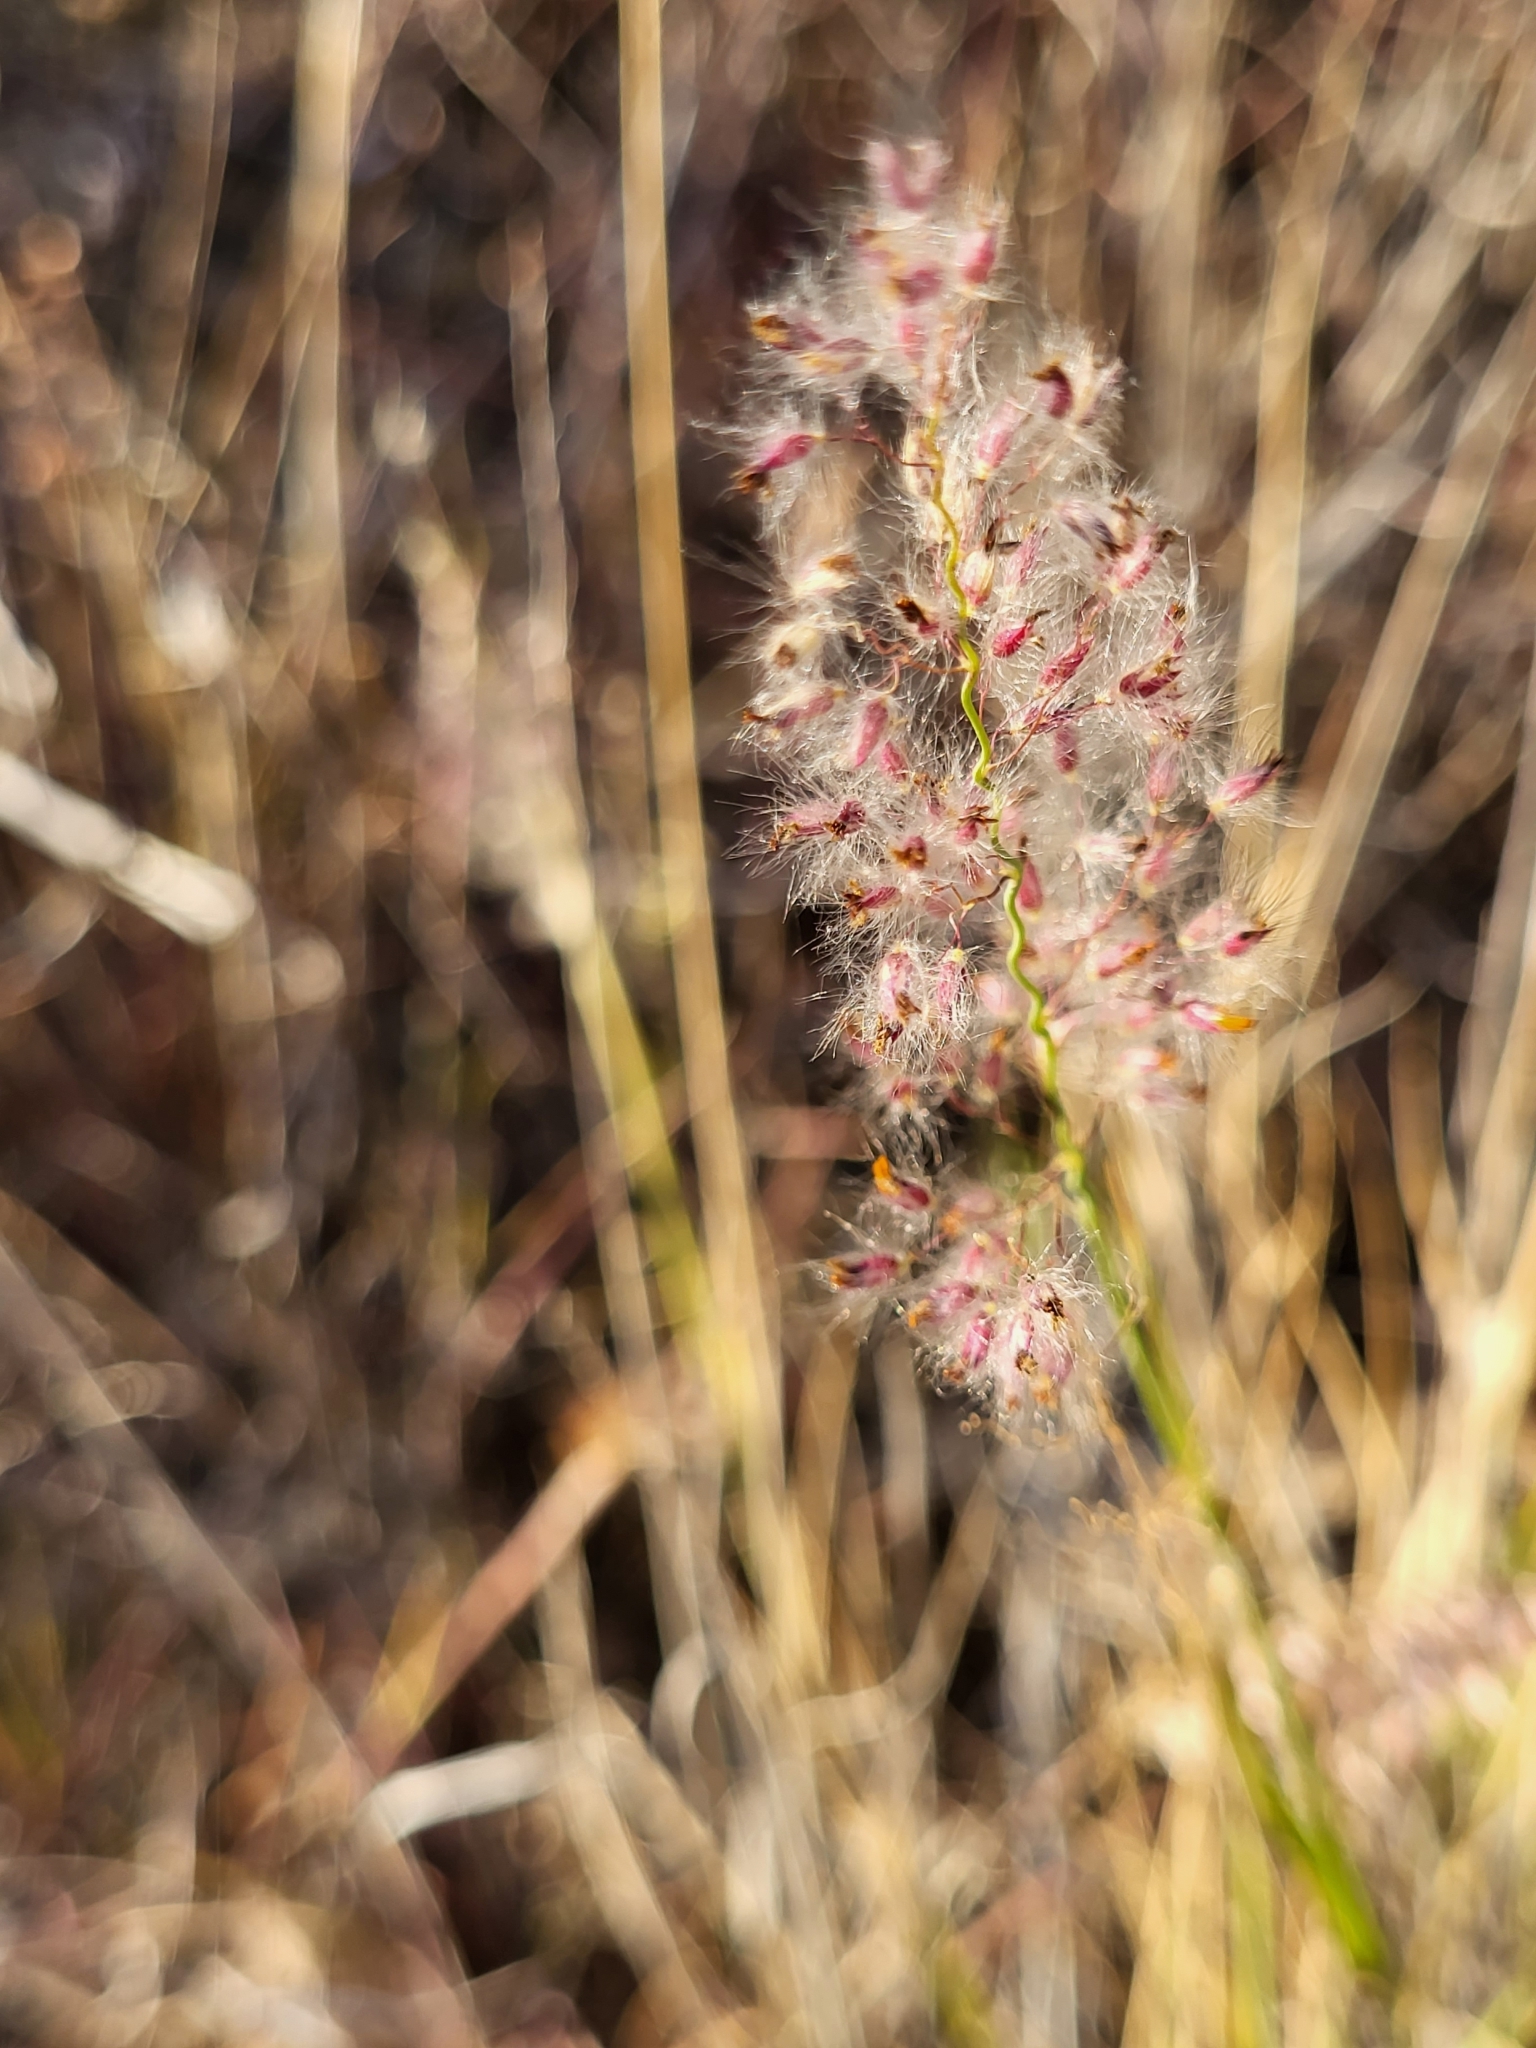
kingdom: Plantae
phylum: Tracheophyta
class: Liliopsida
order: Poales
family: Poaceae
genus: Melinis
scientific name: Melinis repens
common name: Rose natal grass
